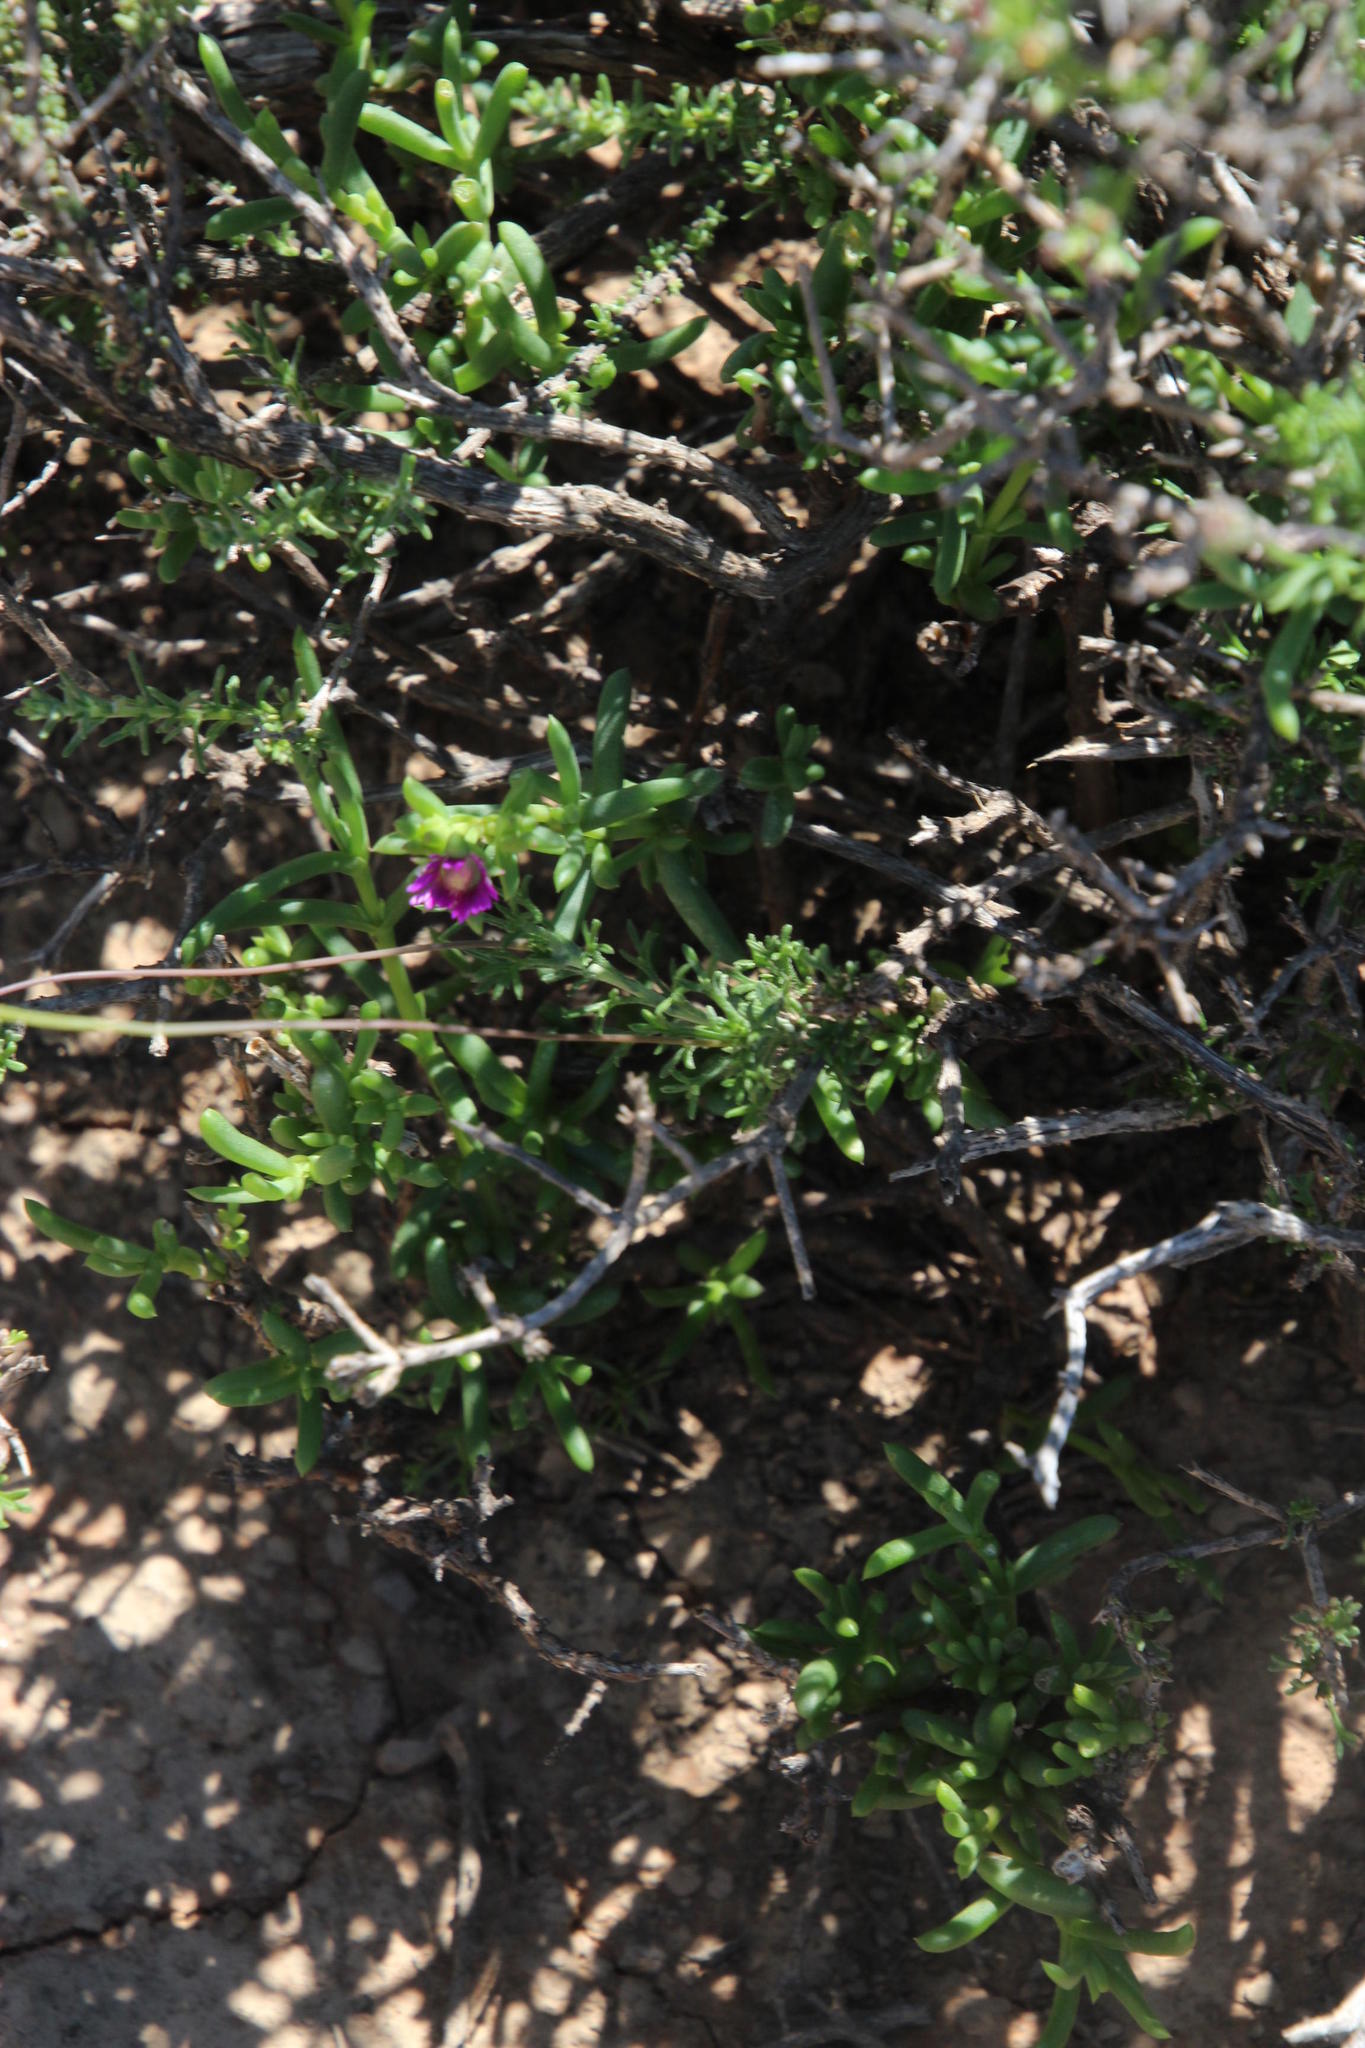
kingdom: Plantae
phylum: Tracheophyta
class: Magnoliopsida
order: Caryophyllales
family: Aizoaceae
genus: Delosperma
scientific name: Delosperma peersii
